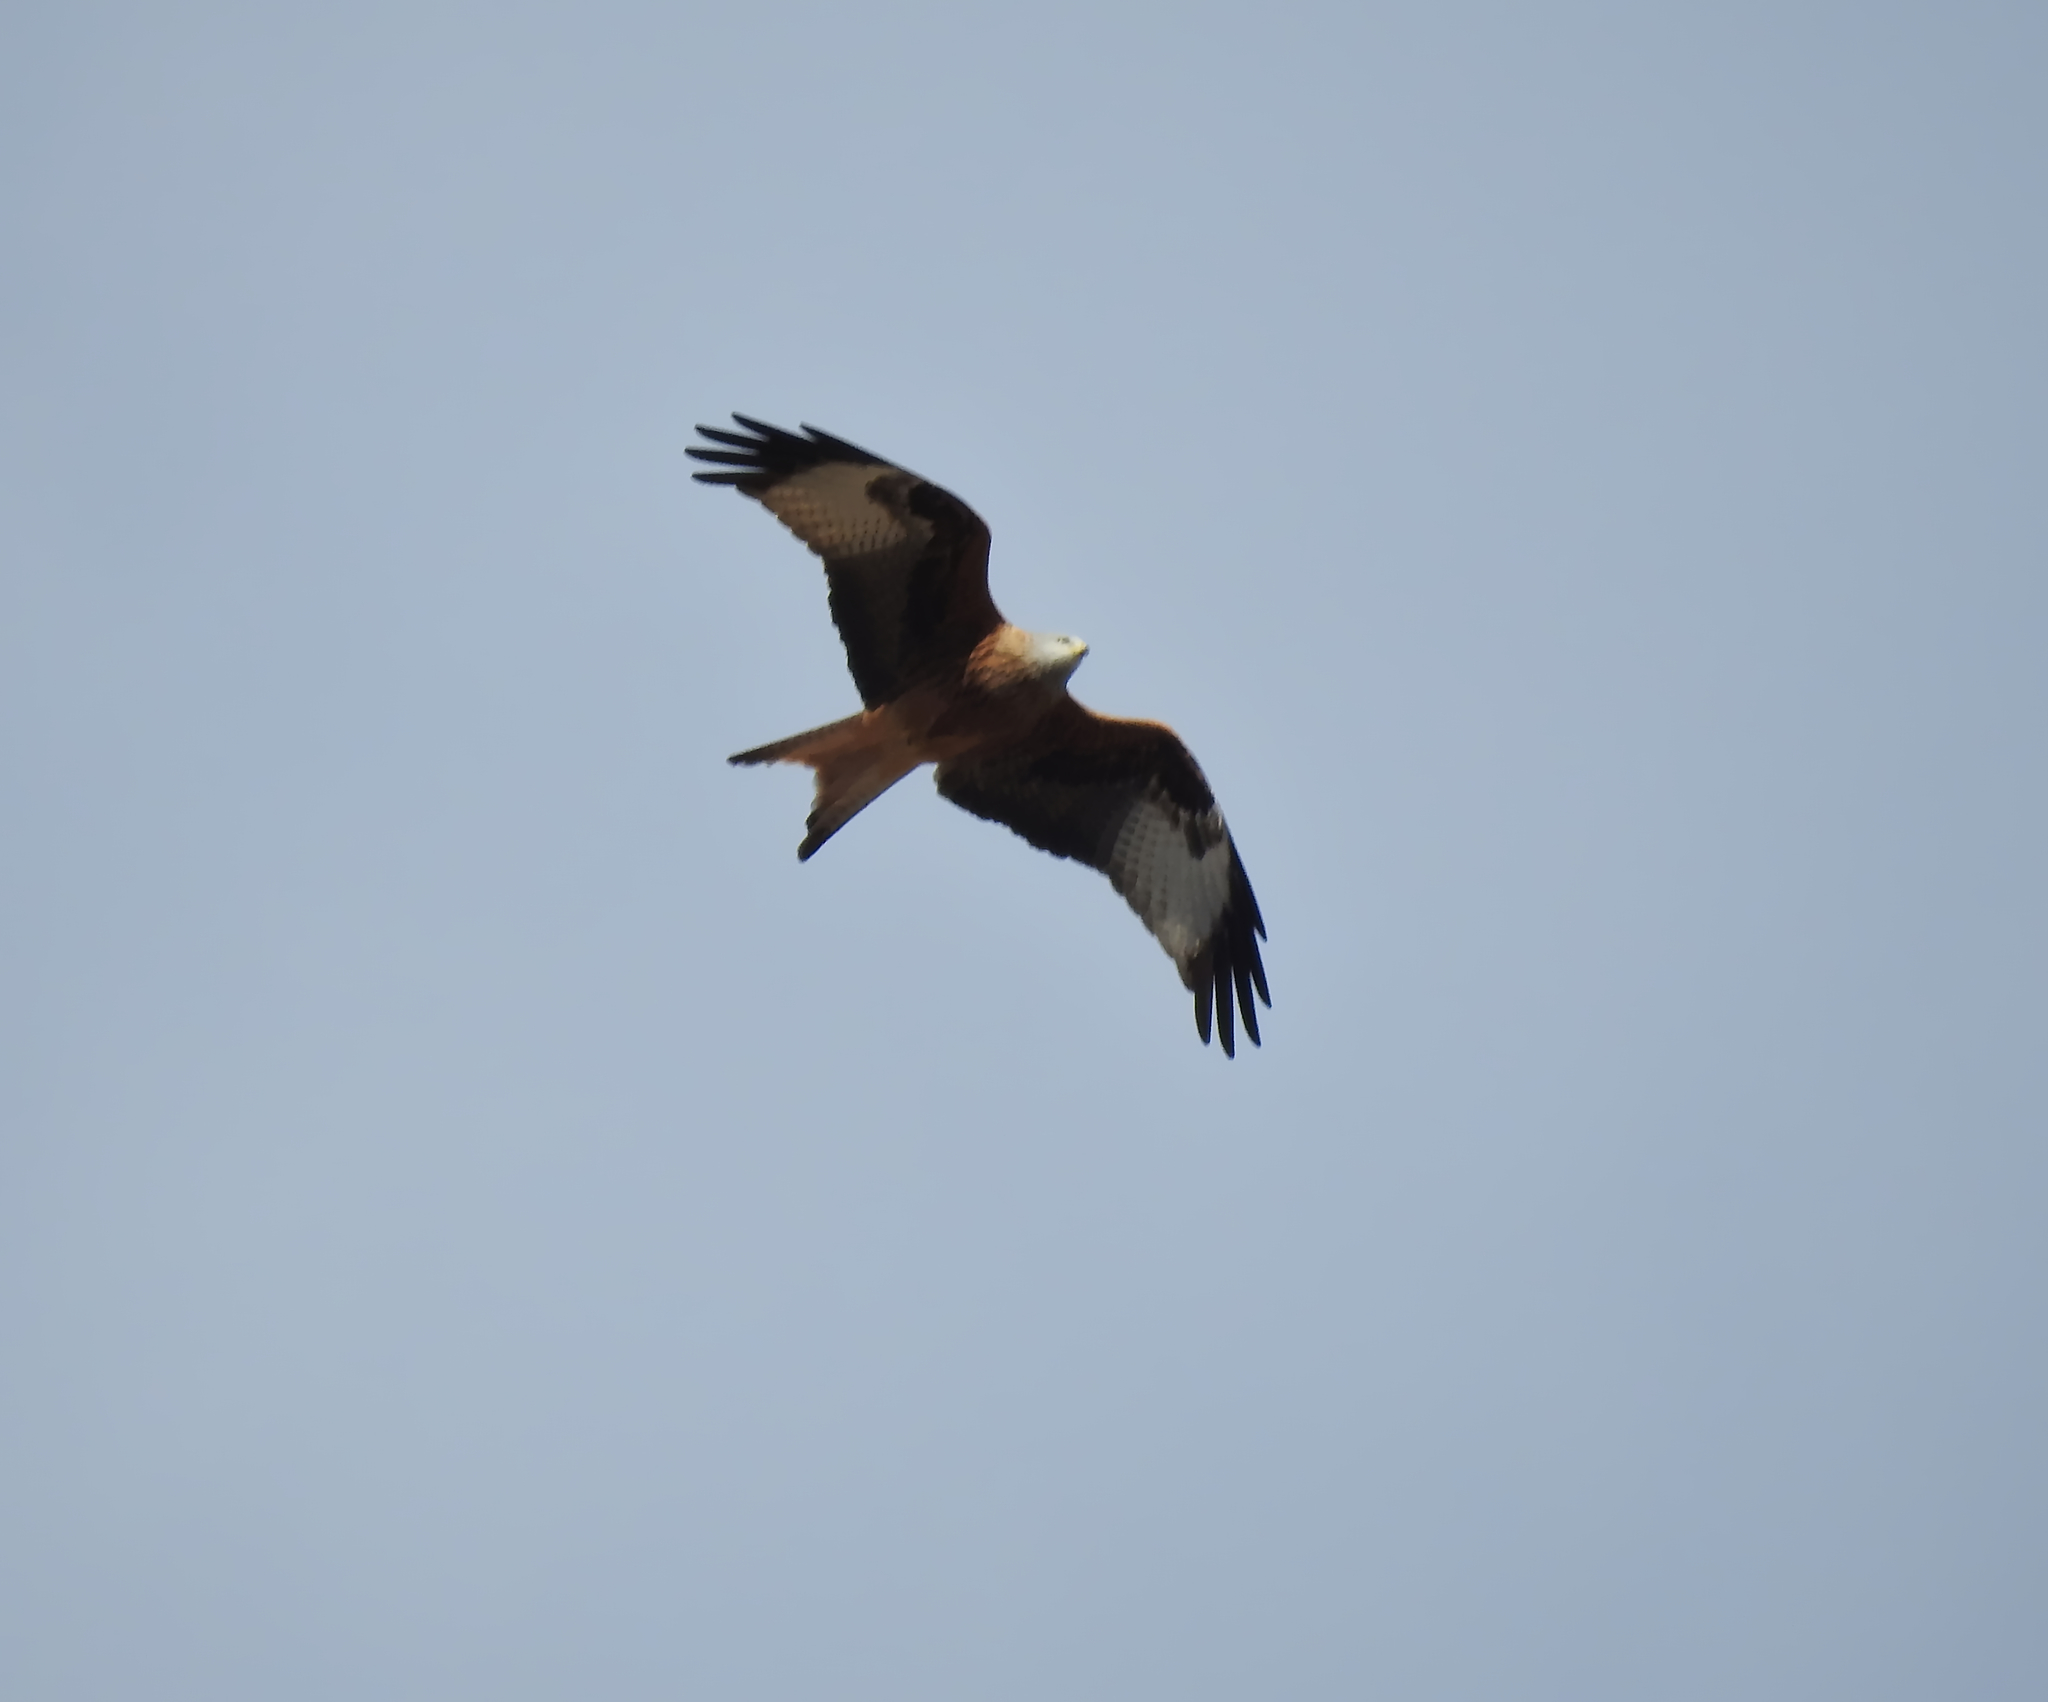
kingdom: Animalia
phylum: Chordata
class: Aves
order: Accipitriformes
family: Accipitridae
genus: Milvus
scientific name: Milvus milvus
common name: Red kite
